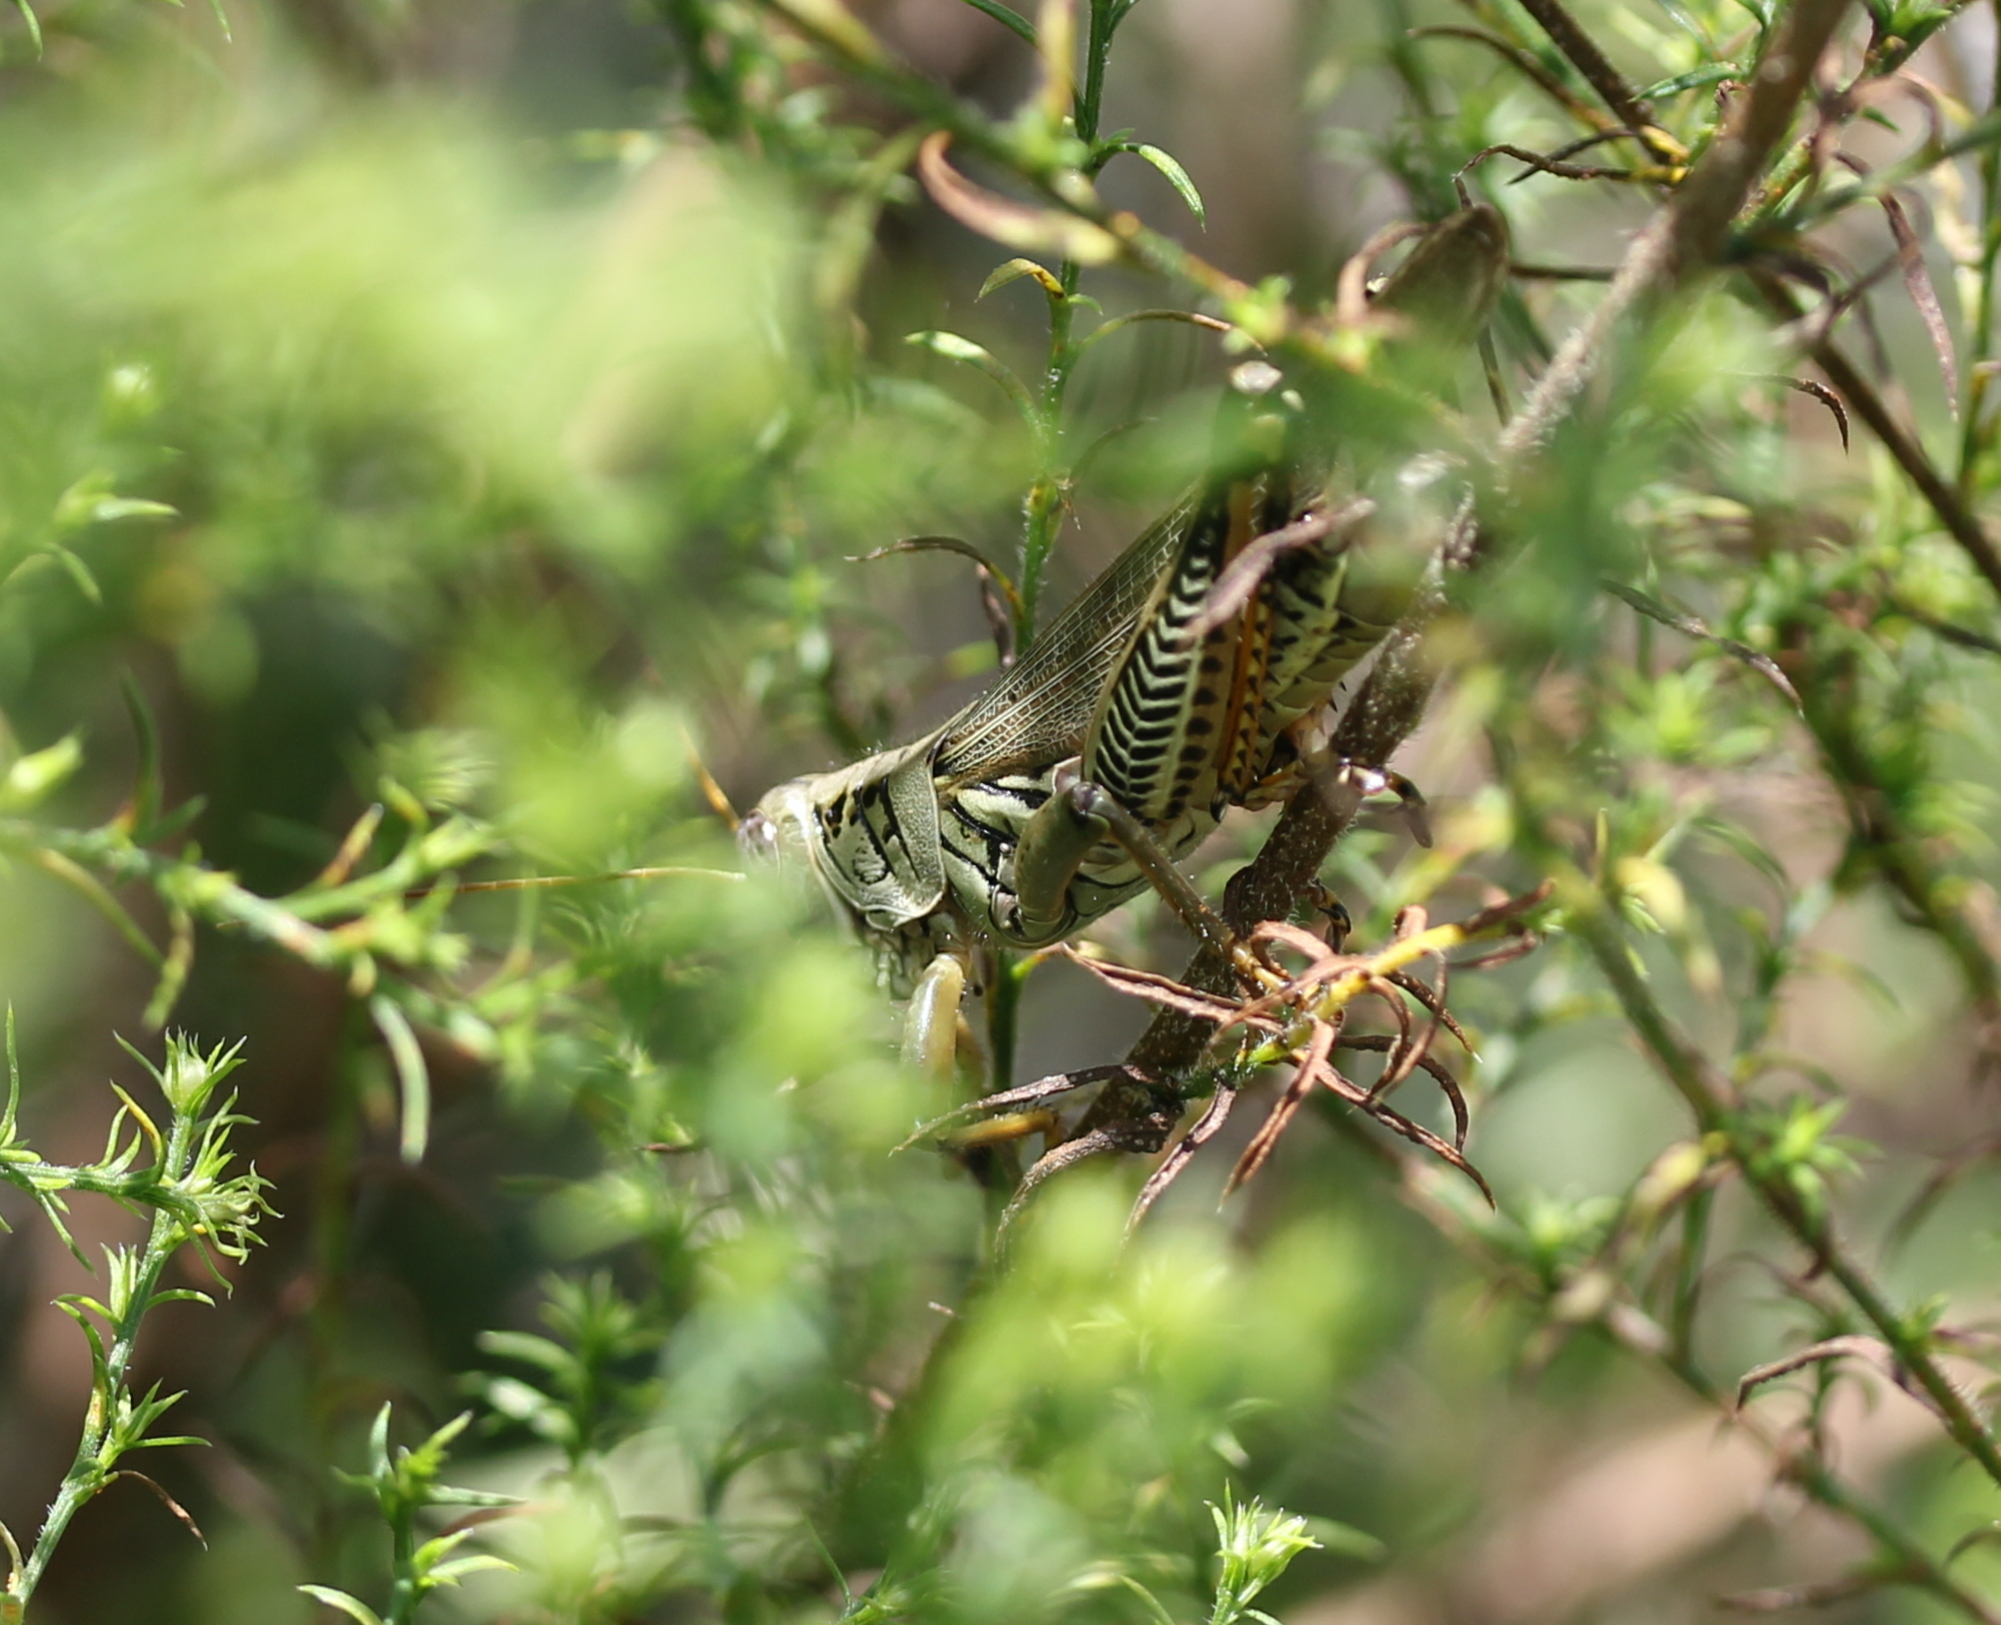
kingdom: Animalia
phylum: Arthropoda
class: Insecta
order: Orthoptera
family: Acrididae
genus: Melanoplus
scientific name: Melanoplus differentialis
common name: Differential grasshopper
